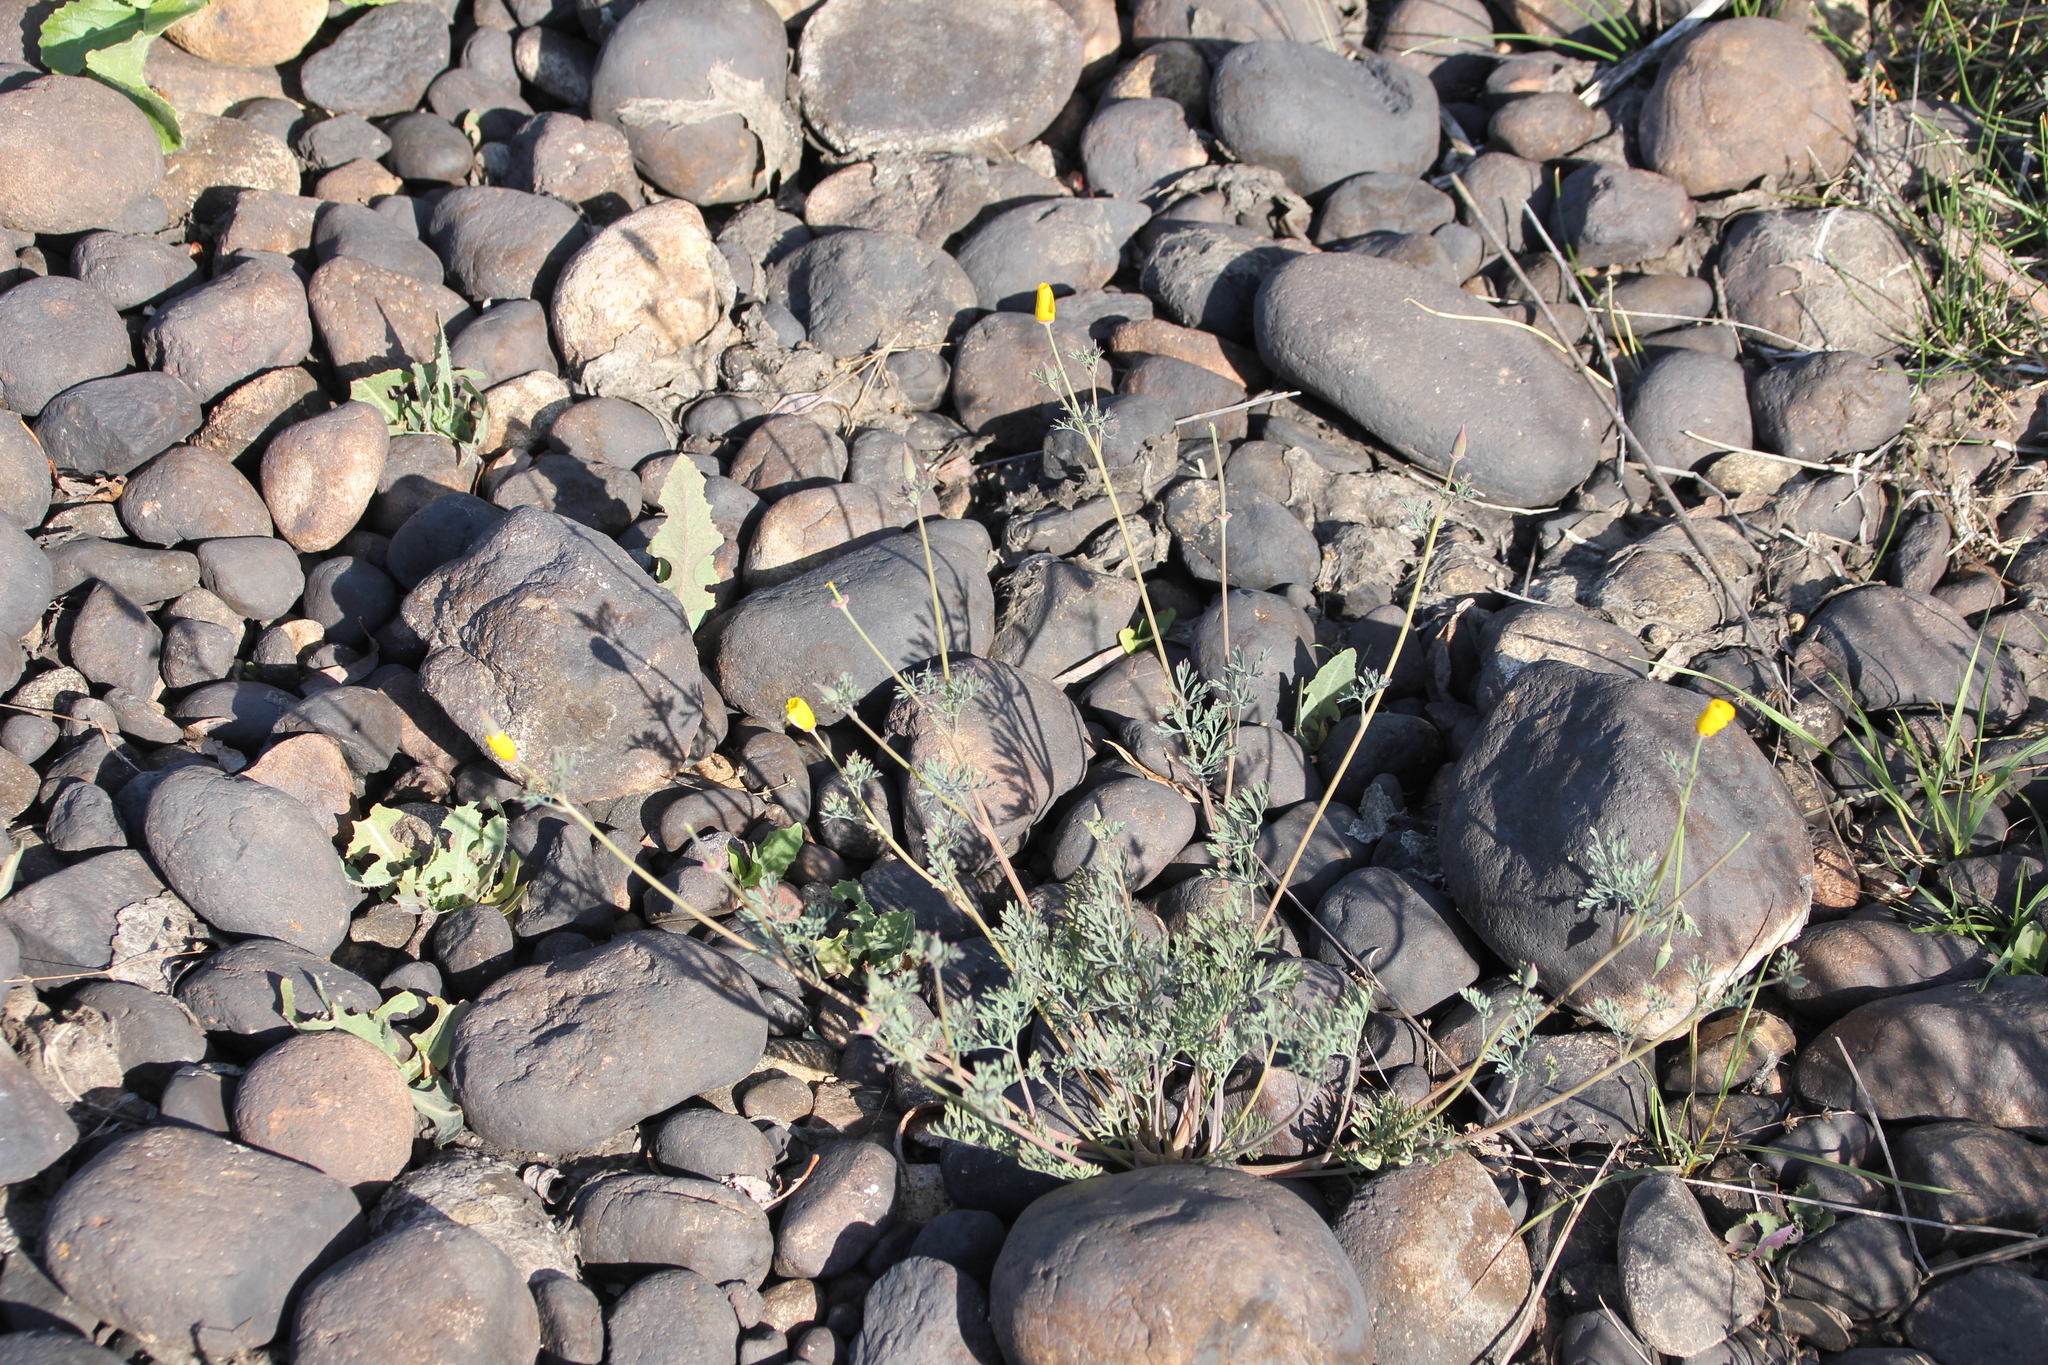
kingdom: Plantae
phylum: Tracheophyta
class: Magnoliopsida
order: Ranunculales
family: Papaveraceae
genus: Eschscholzia
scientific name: Eschscholzia californica
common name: California poppy
